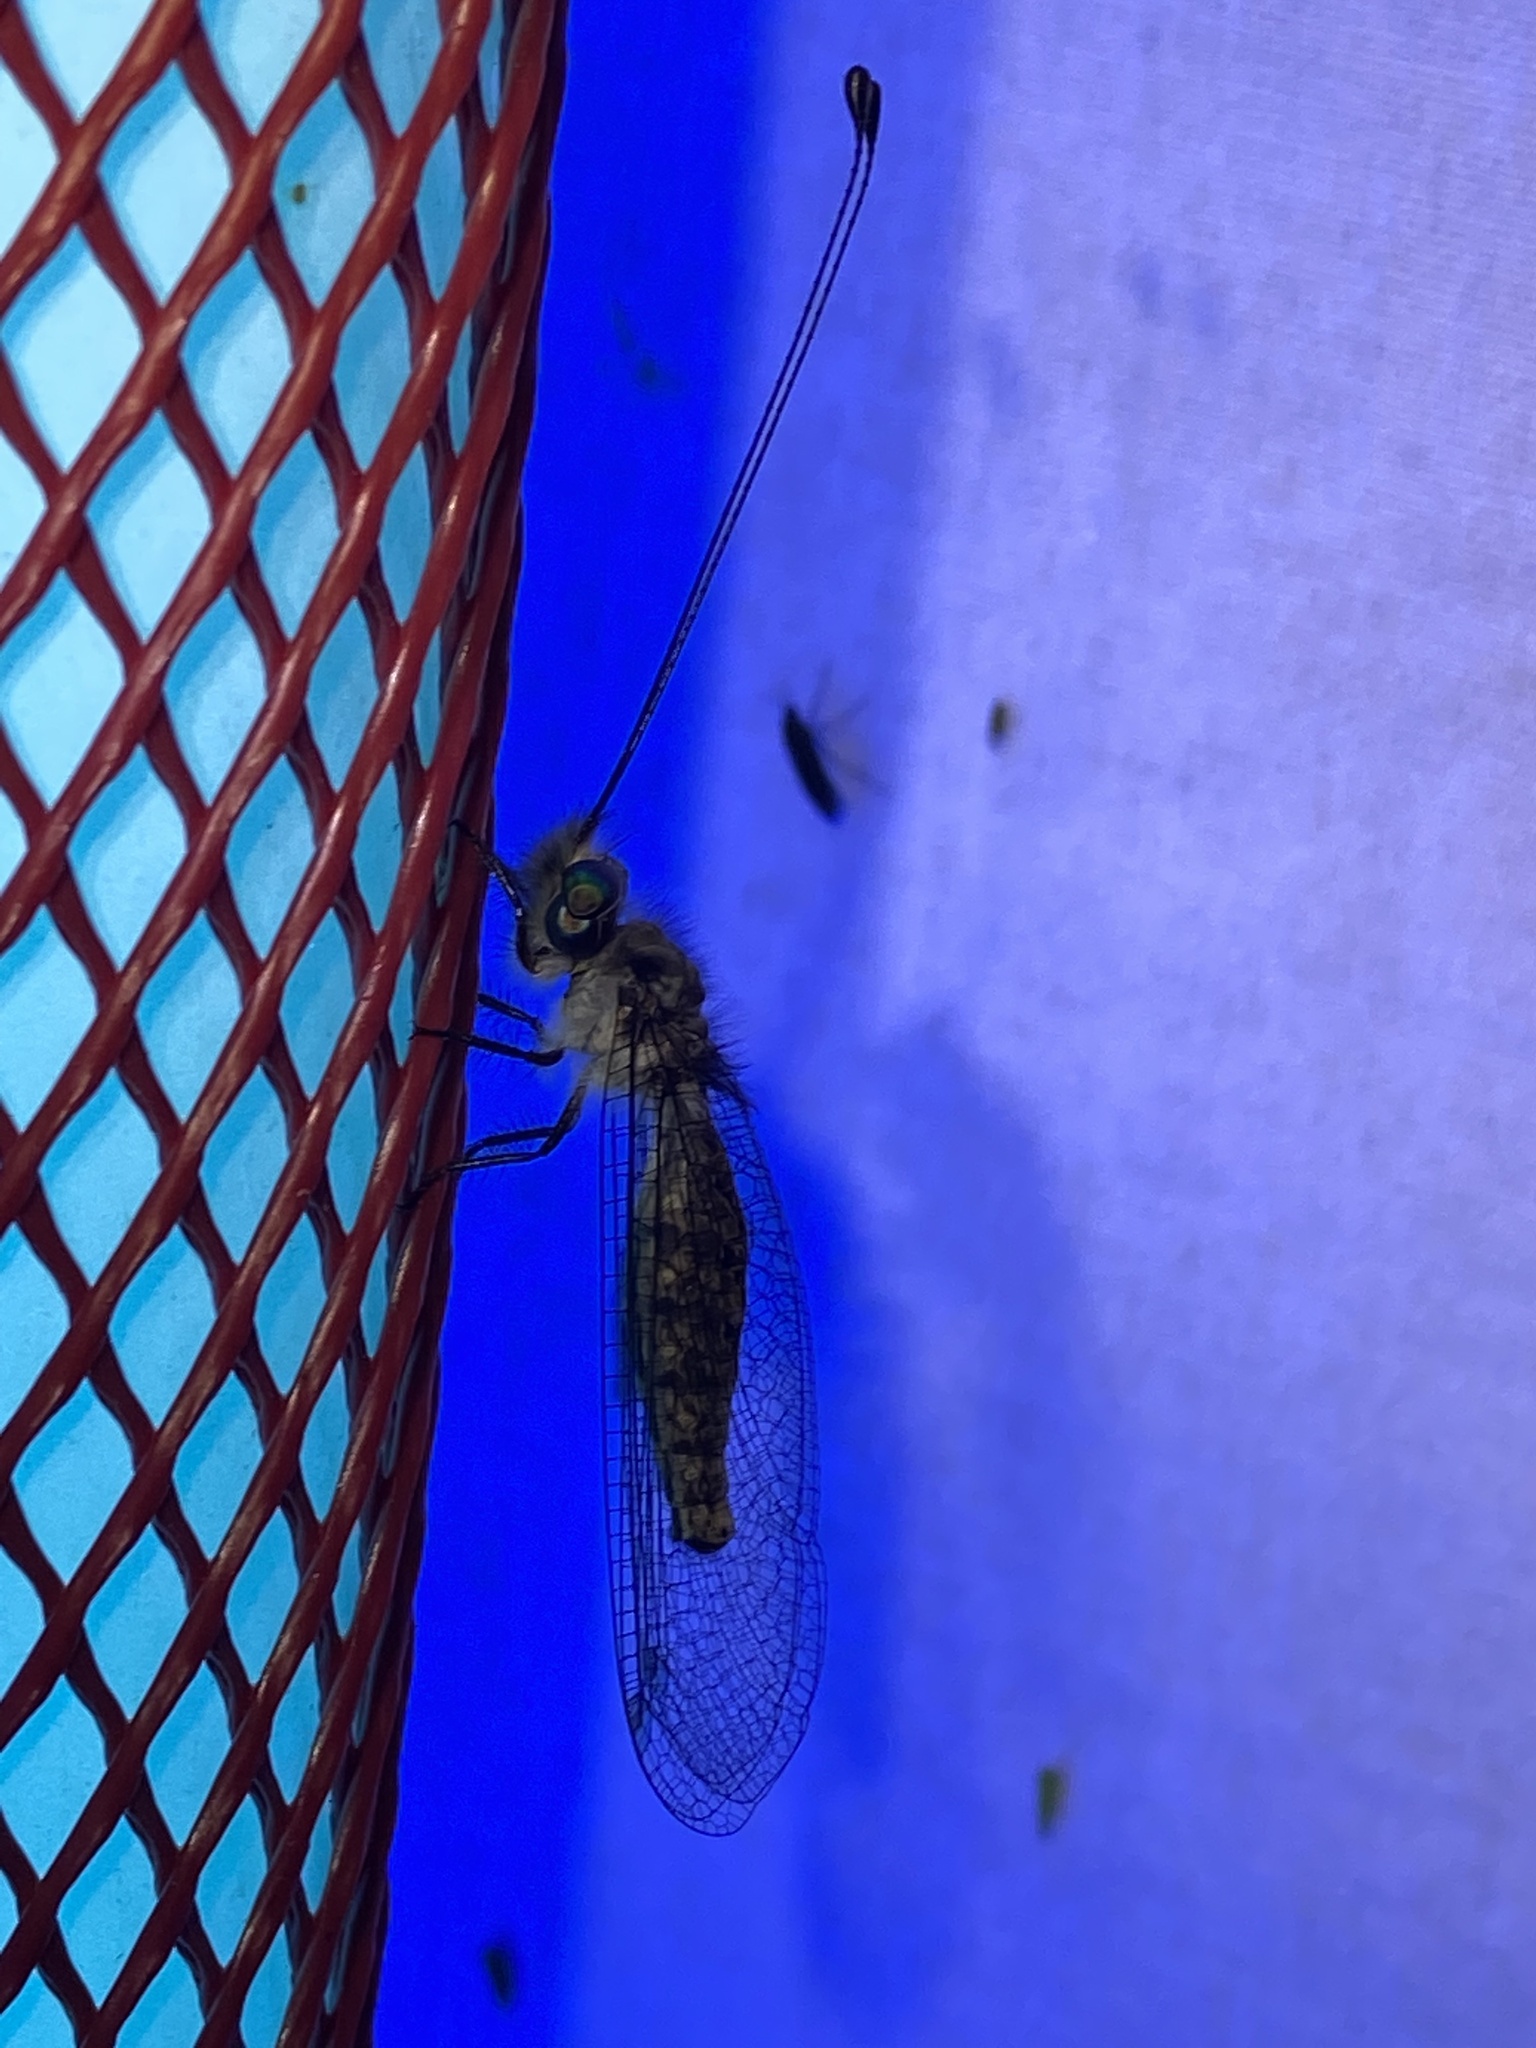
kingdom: Animalia
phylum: Arthropoda
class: Insecta
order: Neuroptera
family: Ascalaphidae
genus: Ululodes
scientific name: Ululodes quadripunctatus
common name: Four-spotted owlfly
